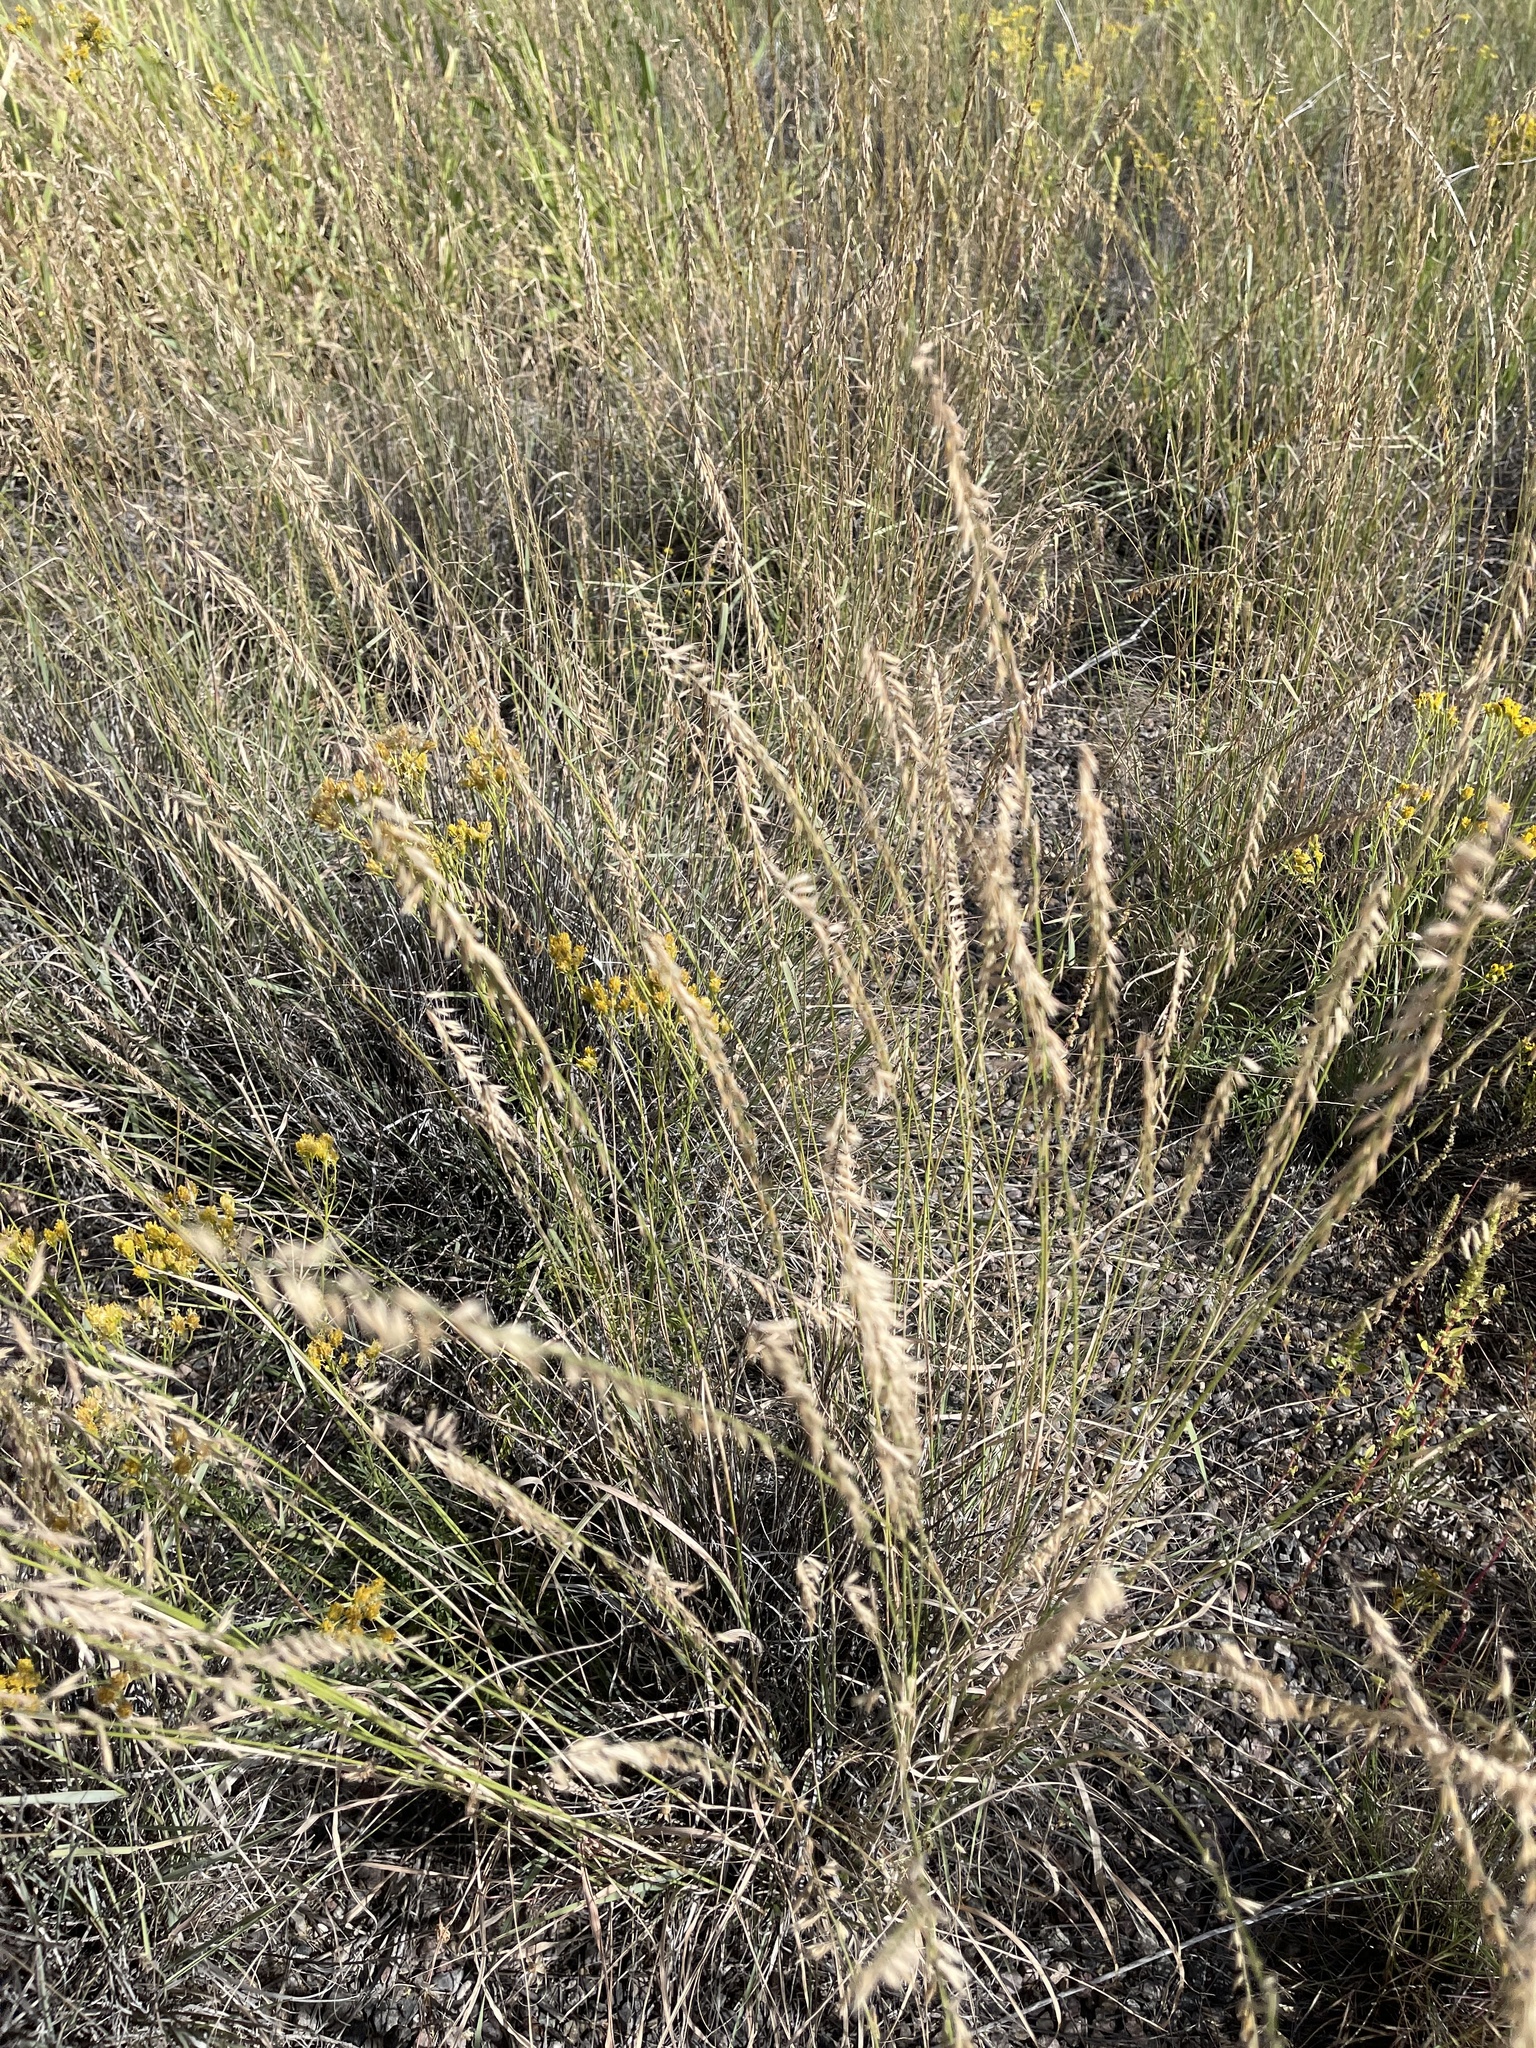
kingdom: Plantae
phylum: Tracheophyta
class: Liliopsida
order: Poales
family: Poaceae
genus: Bouteloua
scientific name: Bouteloua curtipendula
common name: Side-oats grama
